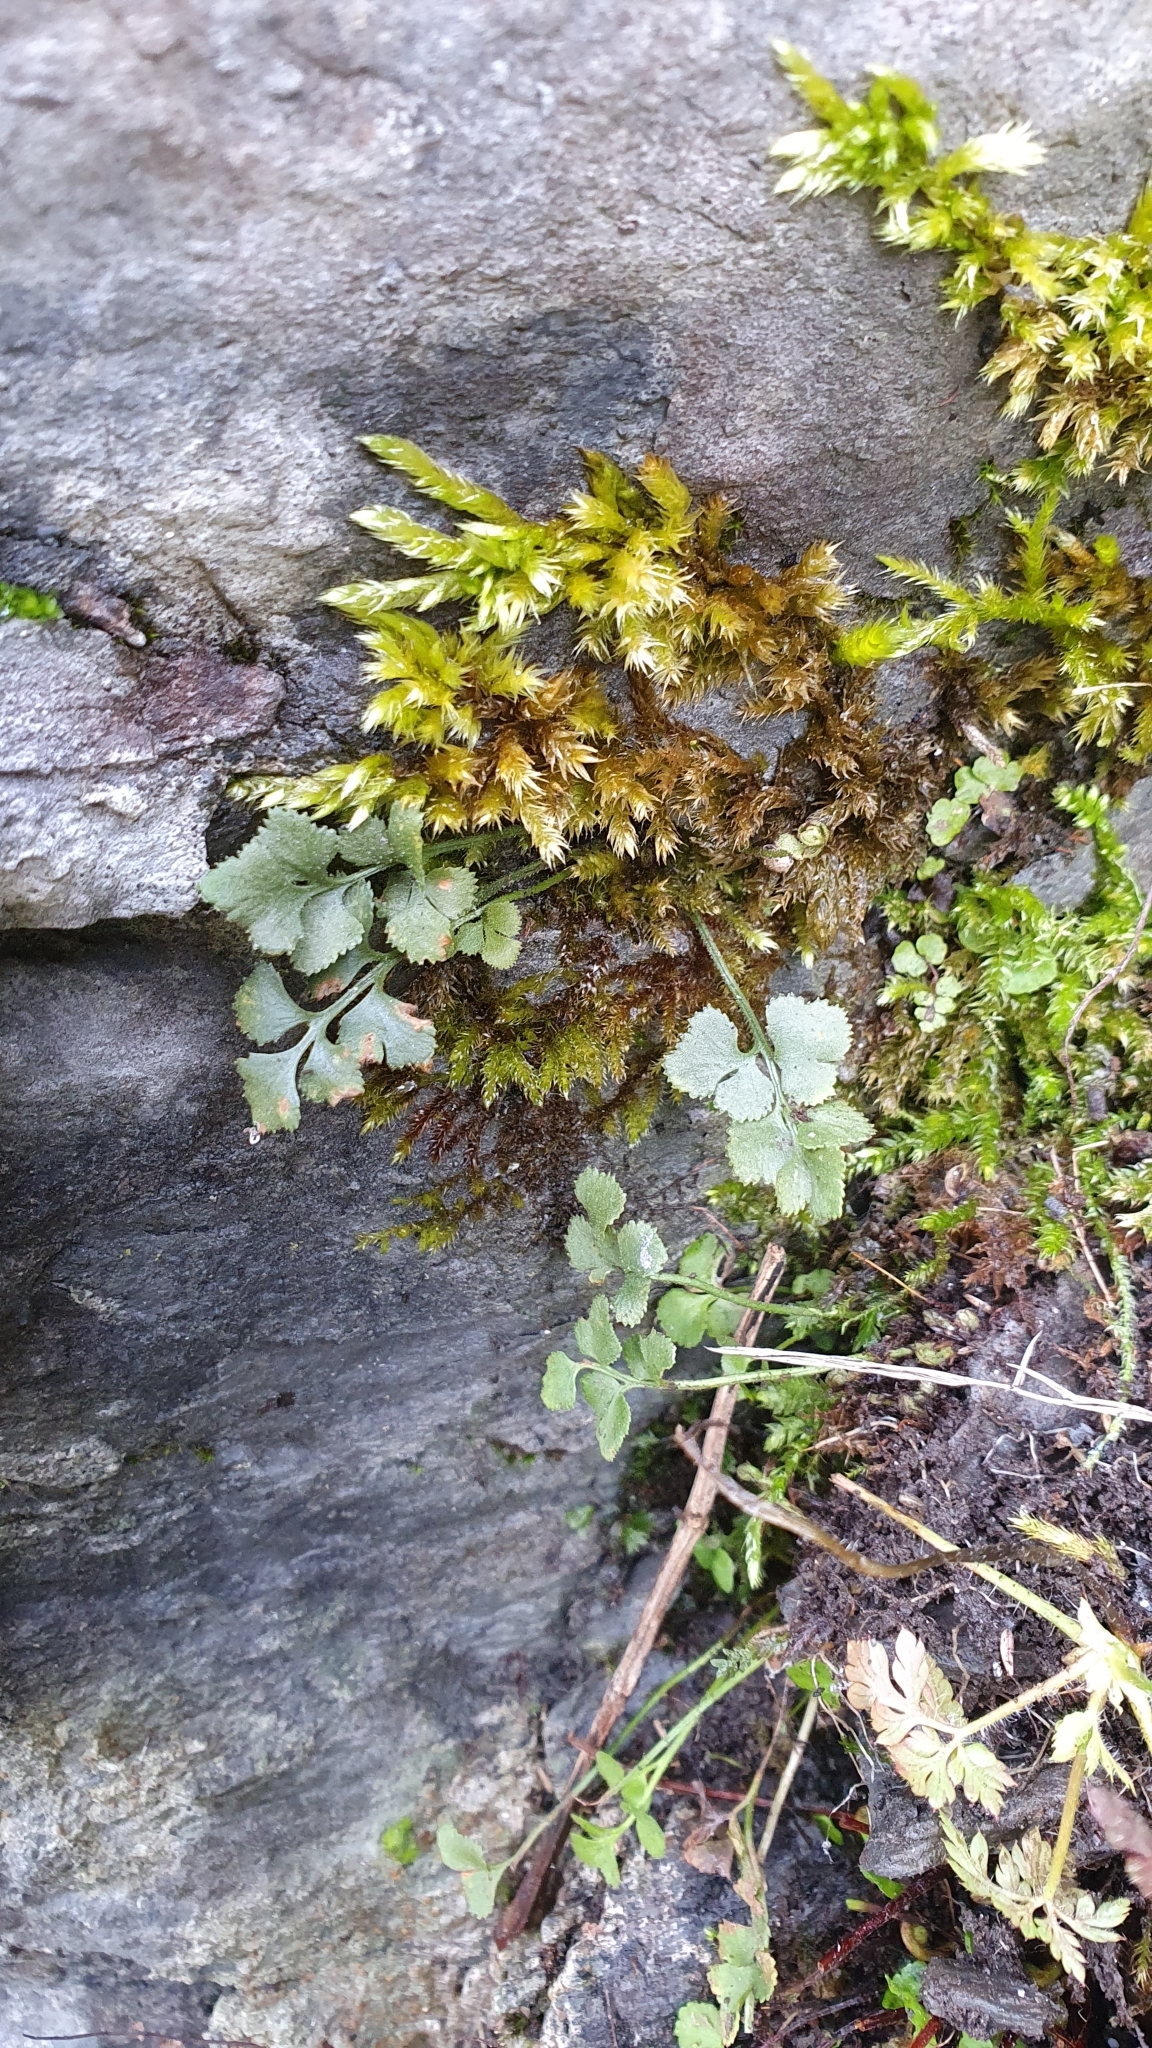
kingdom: Plantae
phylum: Tracheophyta
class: Polypodiopsida
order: Polypodiales
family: Aspleniaceae
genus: Asplenium
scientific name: Asplenium ruta-muraria
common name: Wall-rue
